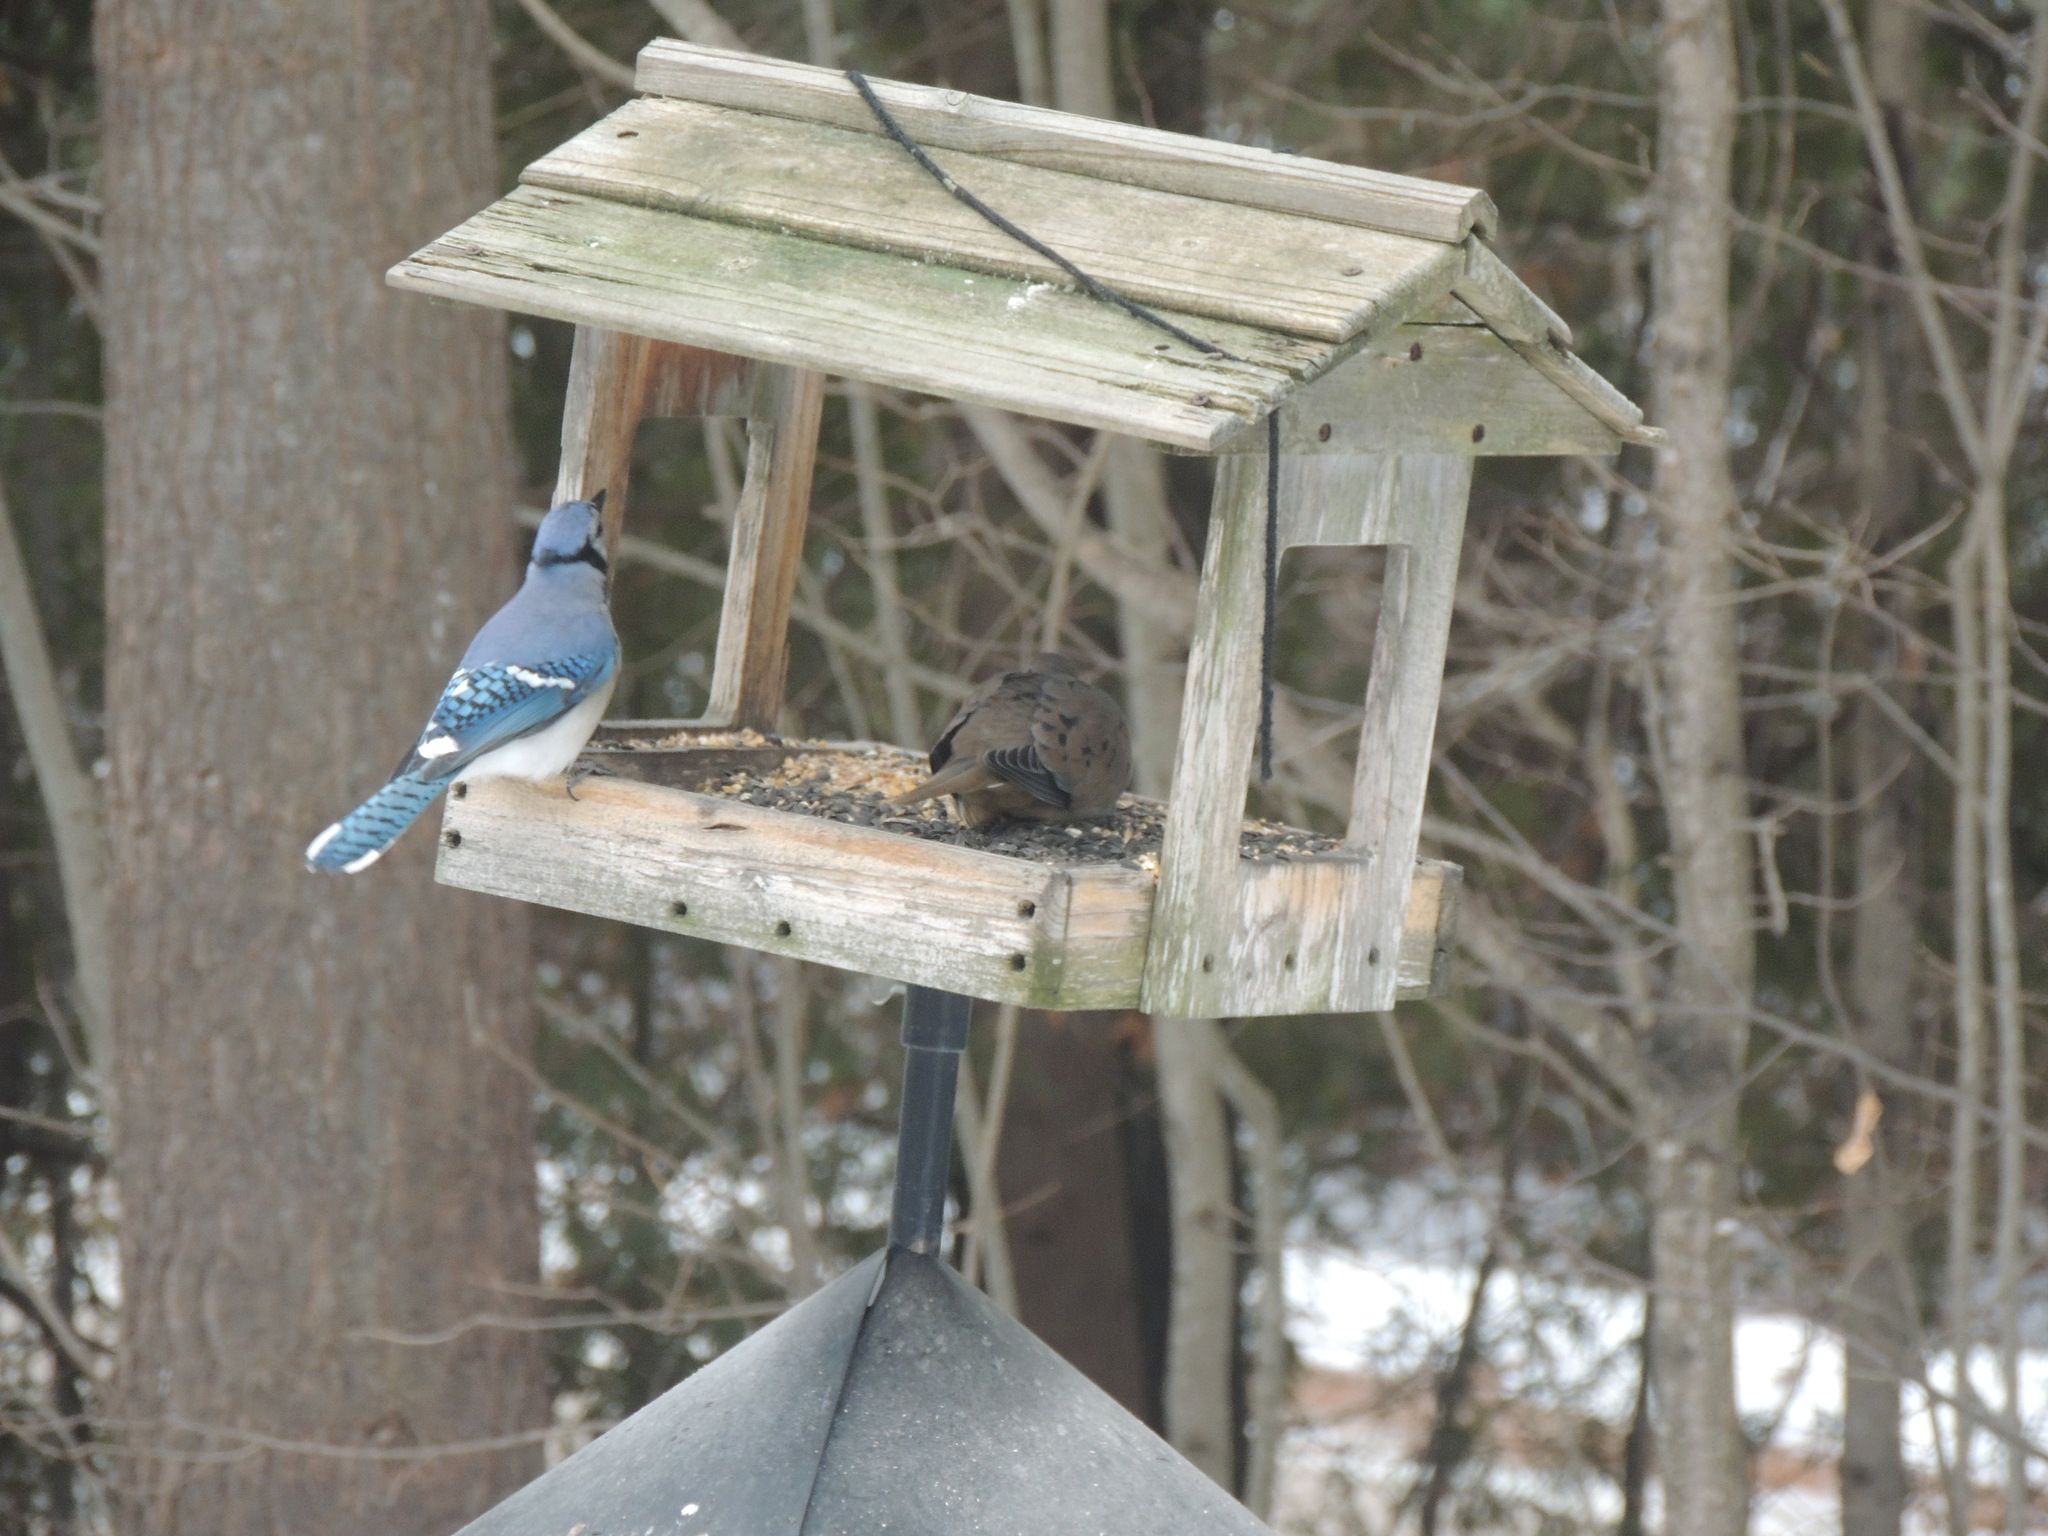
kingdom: Animalia
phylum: Chordata
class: Aves
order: Columbiformes
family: Columbidae
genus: Zenaida
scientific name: Zenaida macroura
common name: Mourning dove
